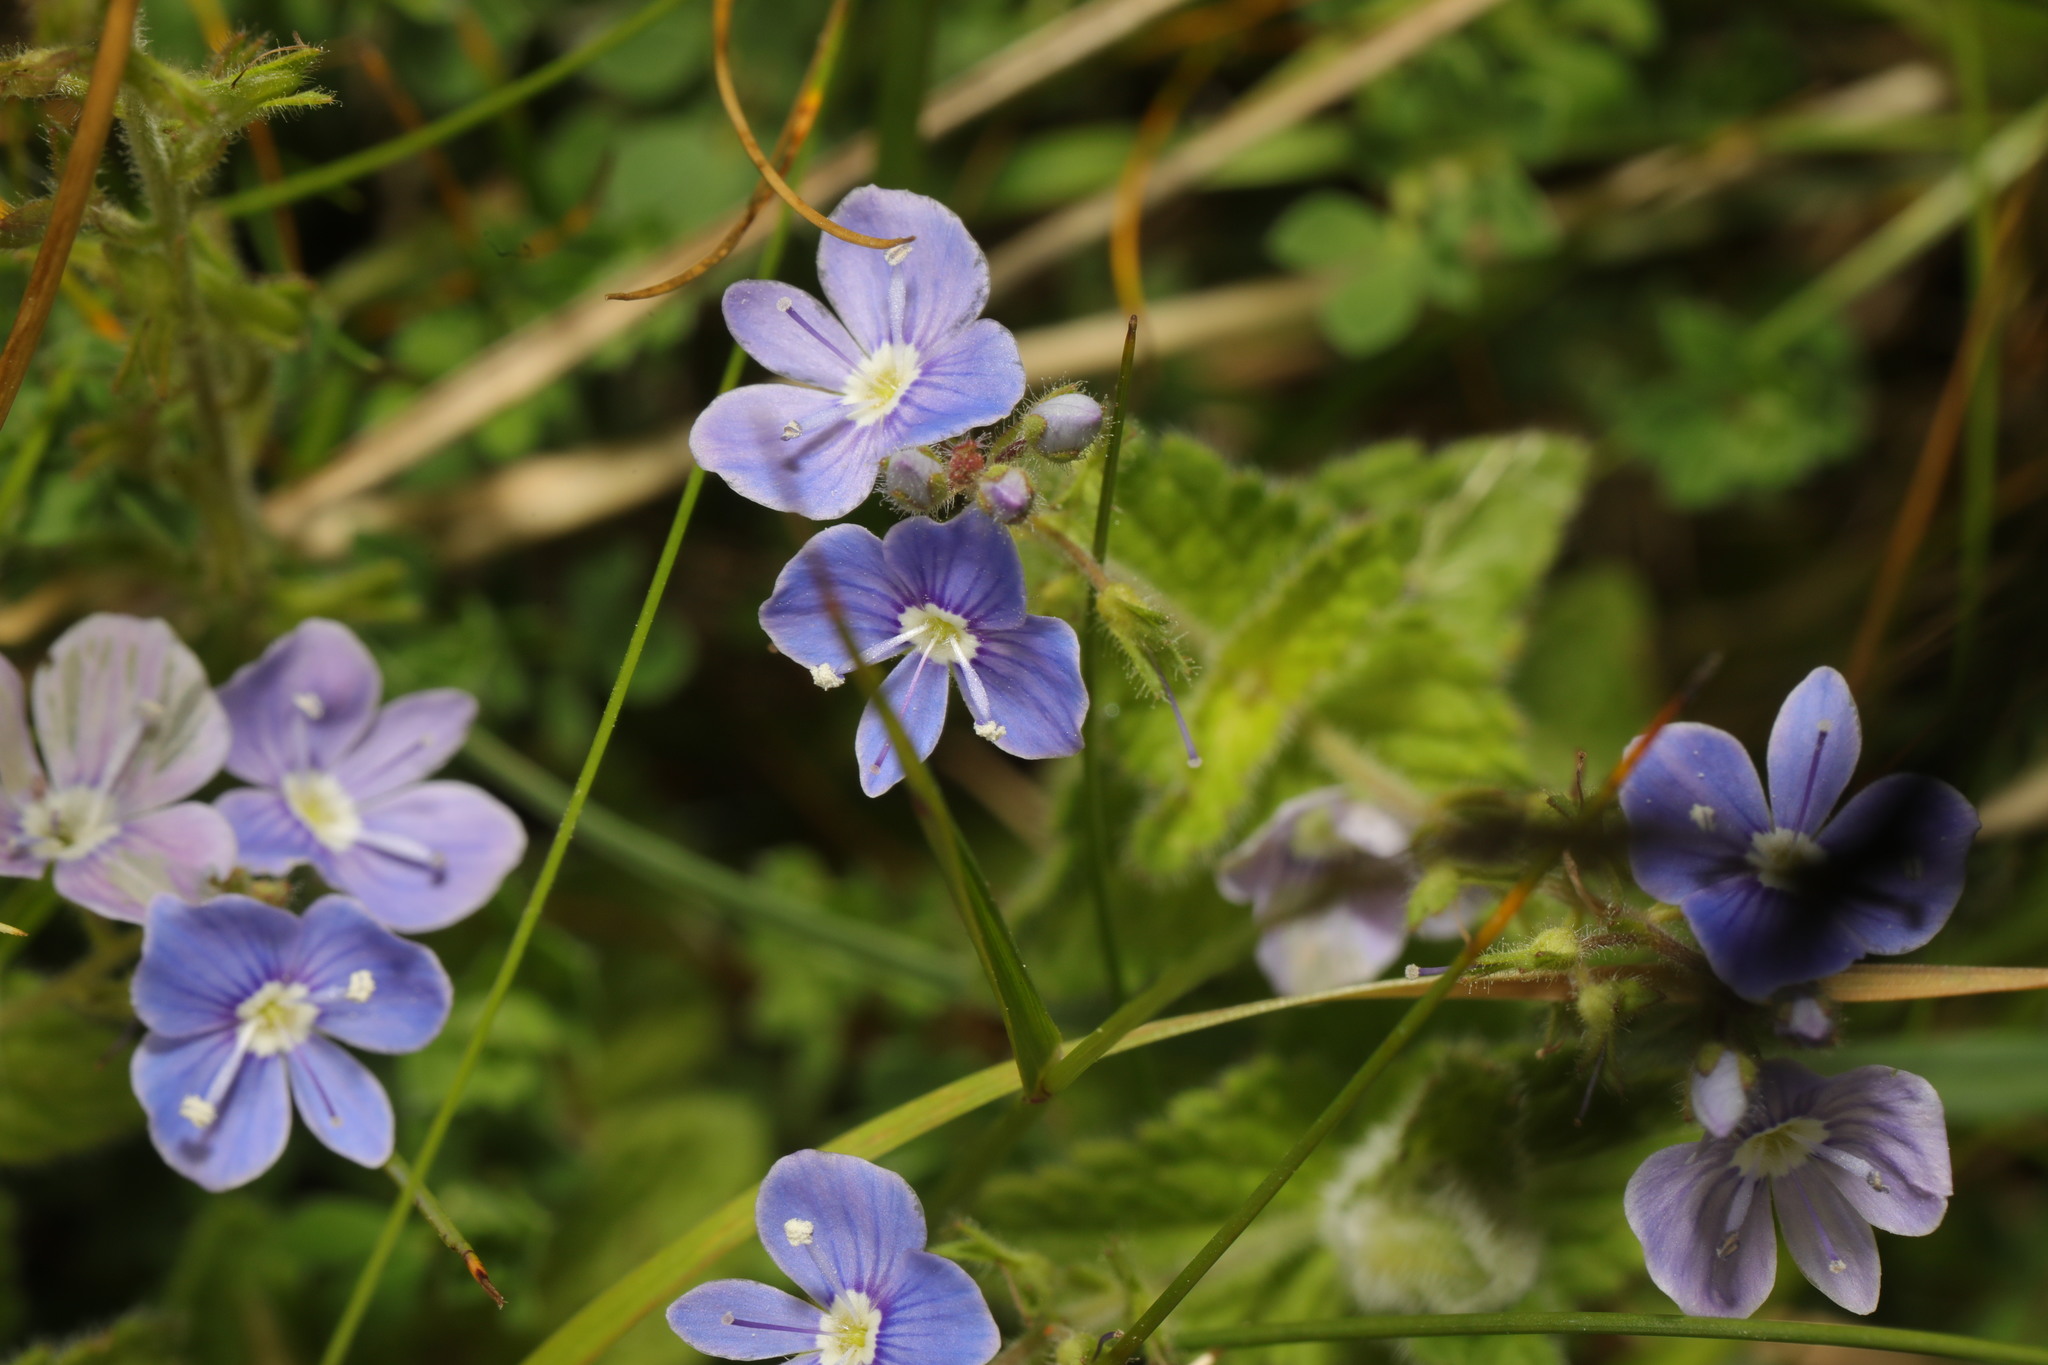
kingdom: Plantae
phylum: Tracheophyta
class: Magnoliopsida
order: Lamiales
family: Plantaginaceae
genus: Veronica
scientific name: Veronica chamaedrys
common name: Germander speedwell
